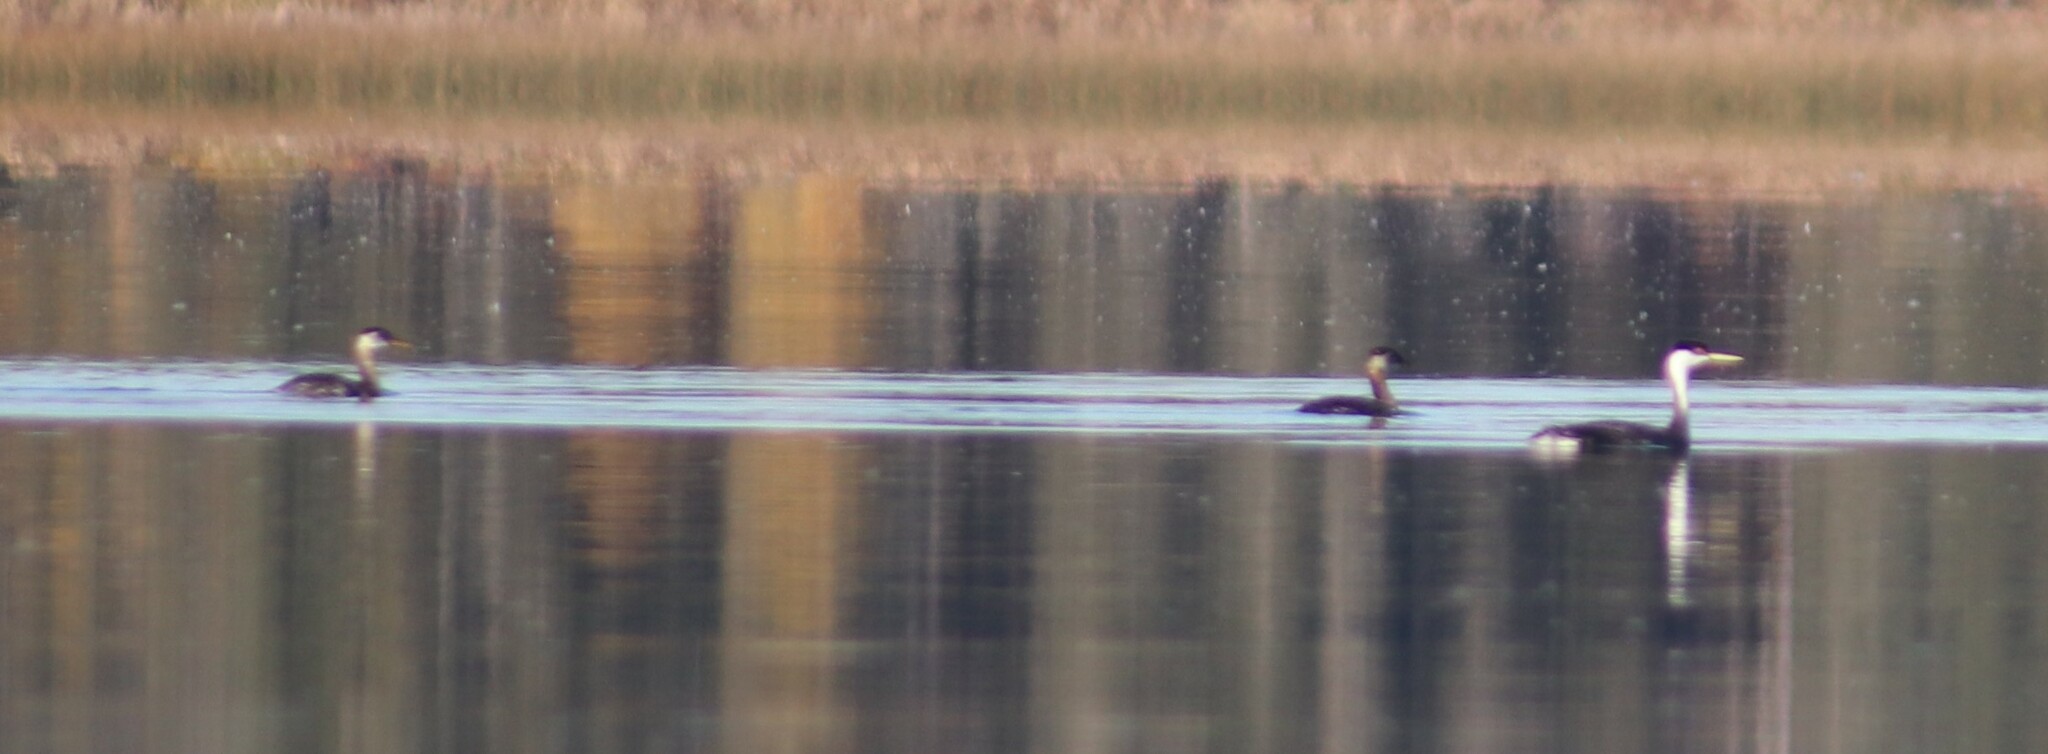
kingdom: Animalia
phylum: Chordata
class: Aves
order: Podicipediformes
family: Podicipedidae
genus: Aechmophorus
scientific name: Aechmophorus occidentalis
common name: Western grebe
